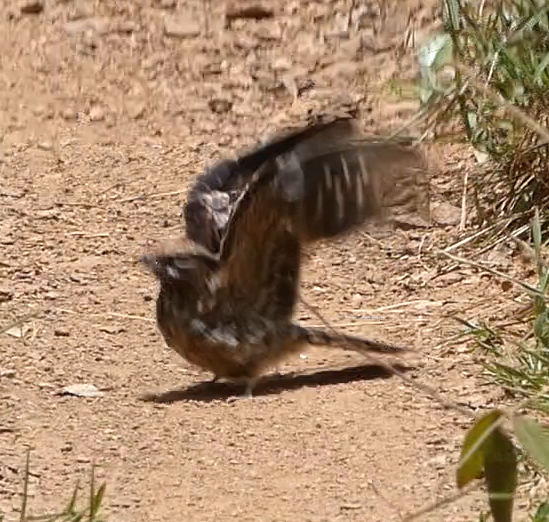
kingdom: Animalia
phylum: Chordata
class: Aves
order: Caprimulgiformes
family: Caprimulgidae
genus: Hydropsalis
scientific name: Hydropsalis torquata
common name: Scissor-tailed nightjar
